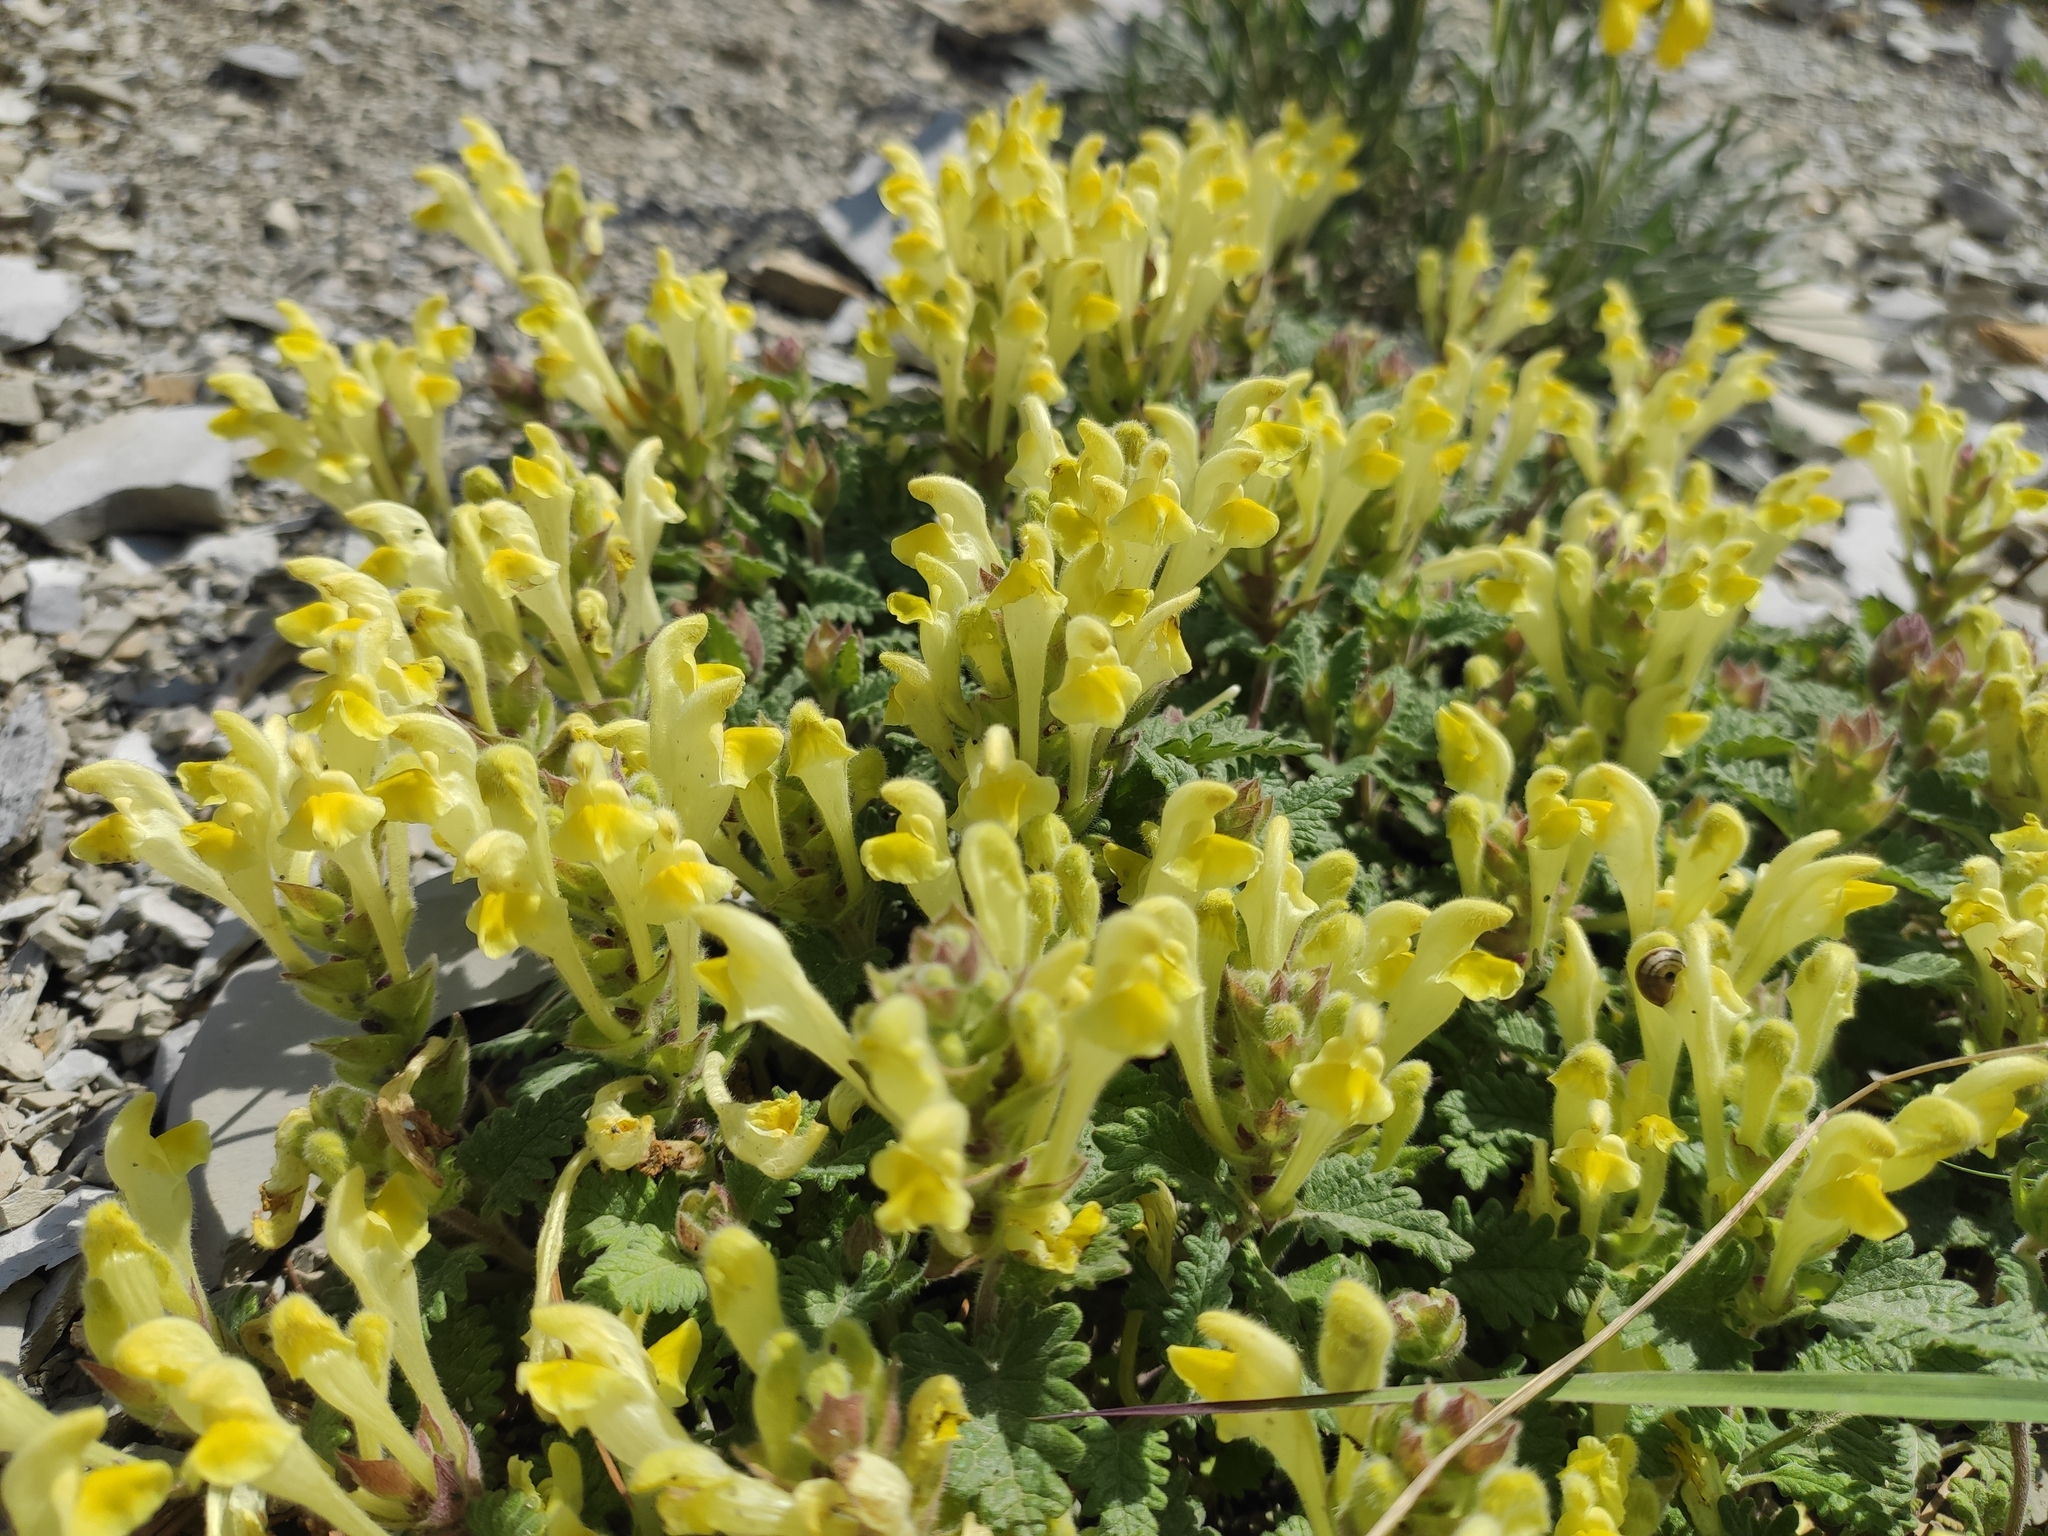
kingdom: Plantae
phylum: Tracheophyta
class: Magnoliopsida
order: Lamiales
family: Lamiaceae
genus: Scutellaria
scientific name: Scutellaria orientalis
